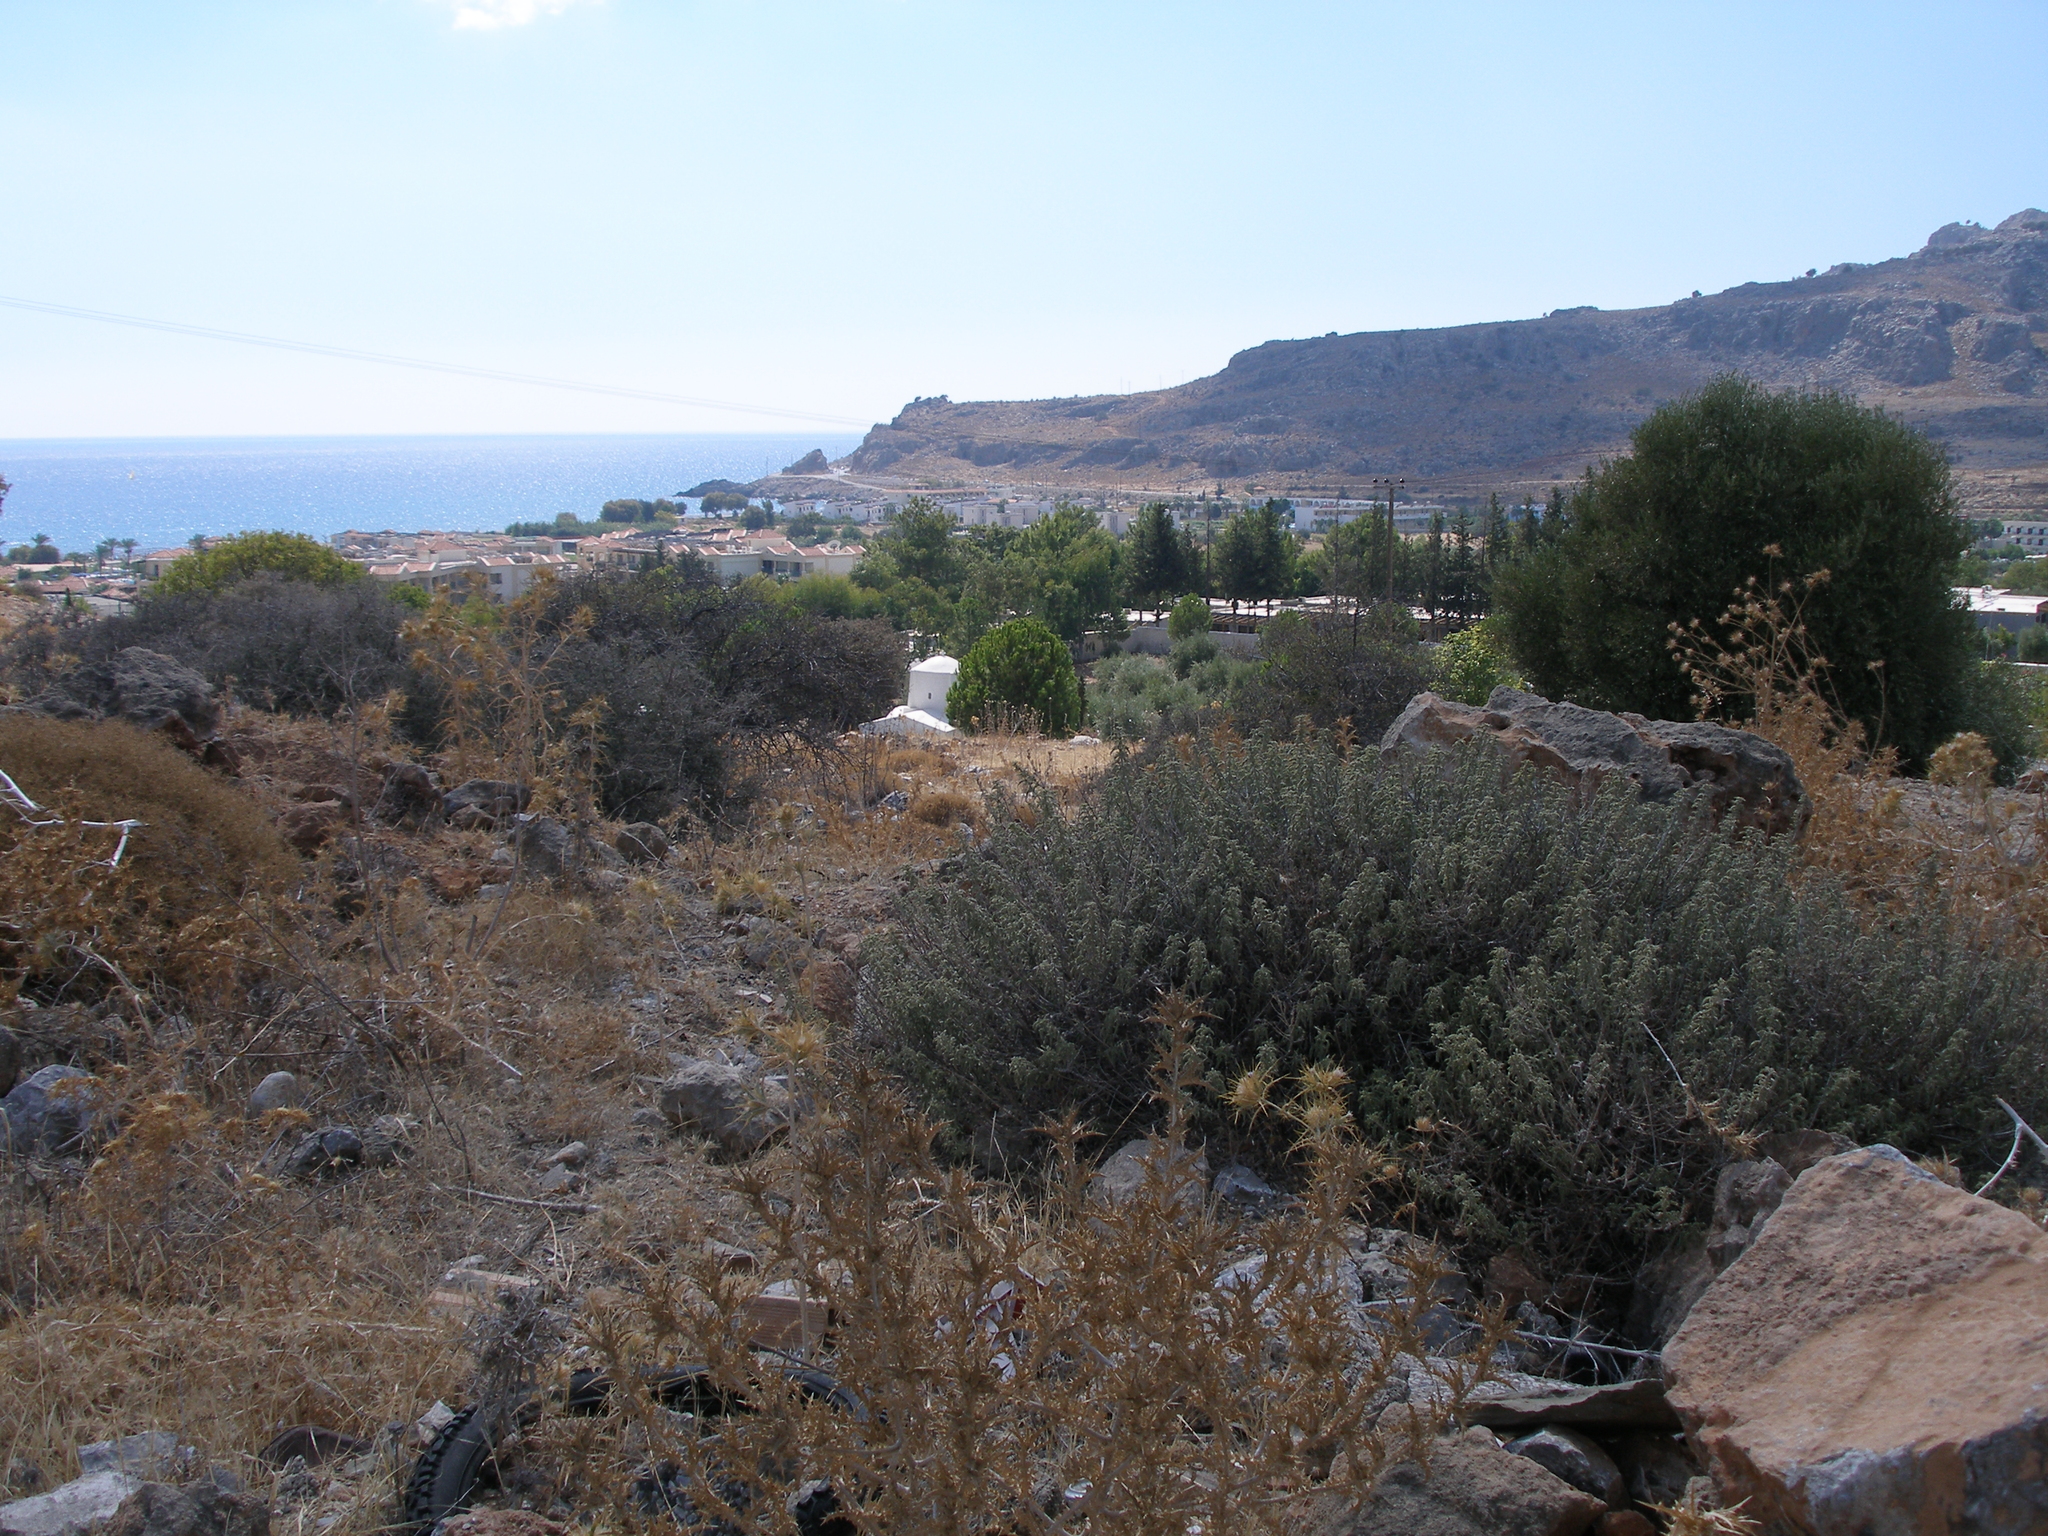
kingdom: Plantae
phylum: Tracheophyta
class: Magnoliopsida
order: Lamiales
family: Lamiaceae
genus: Salvia
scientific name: Salvia fruticosa
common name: Greek sage
